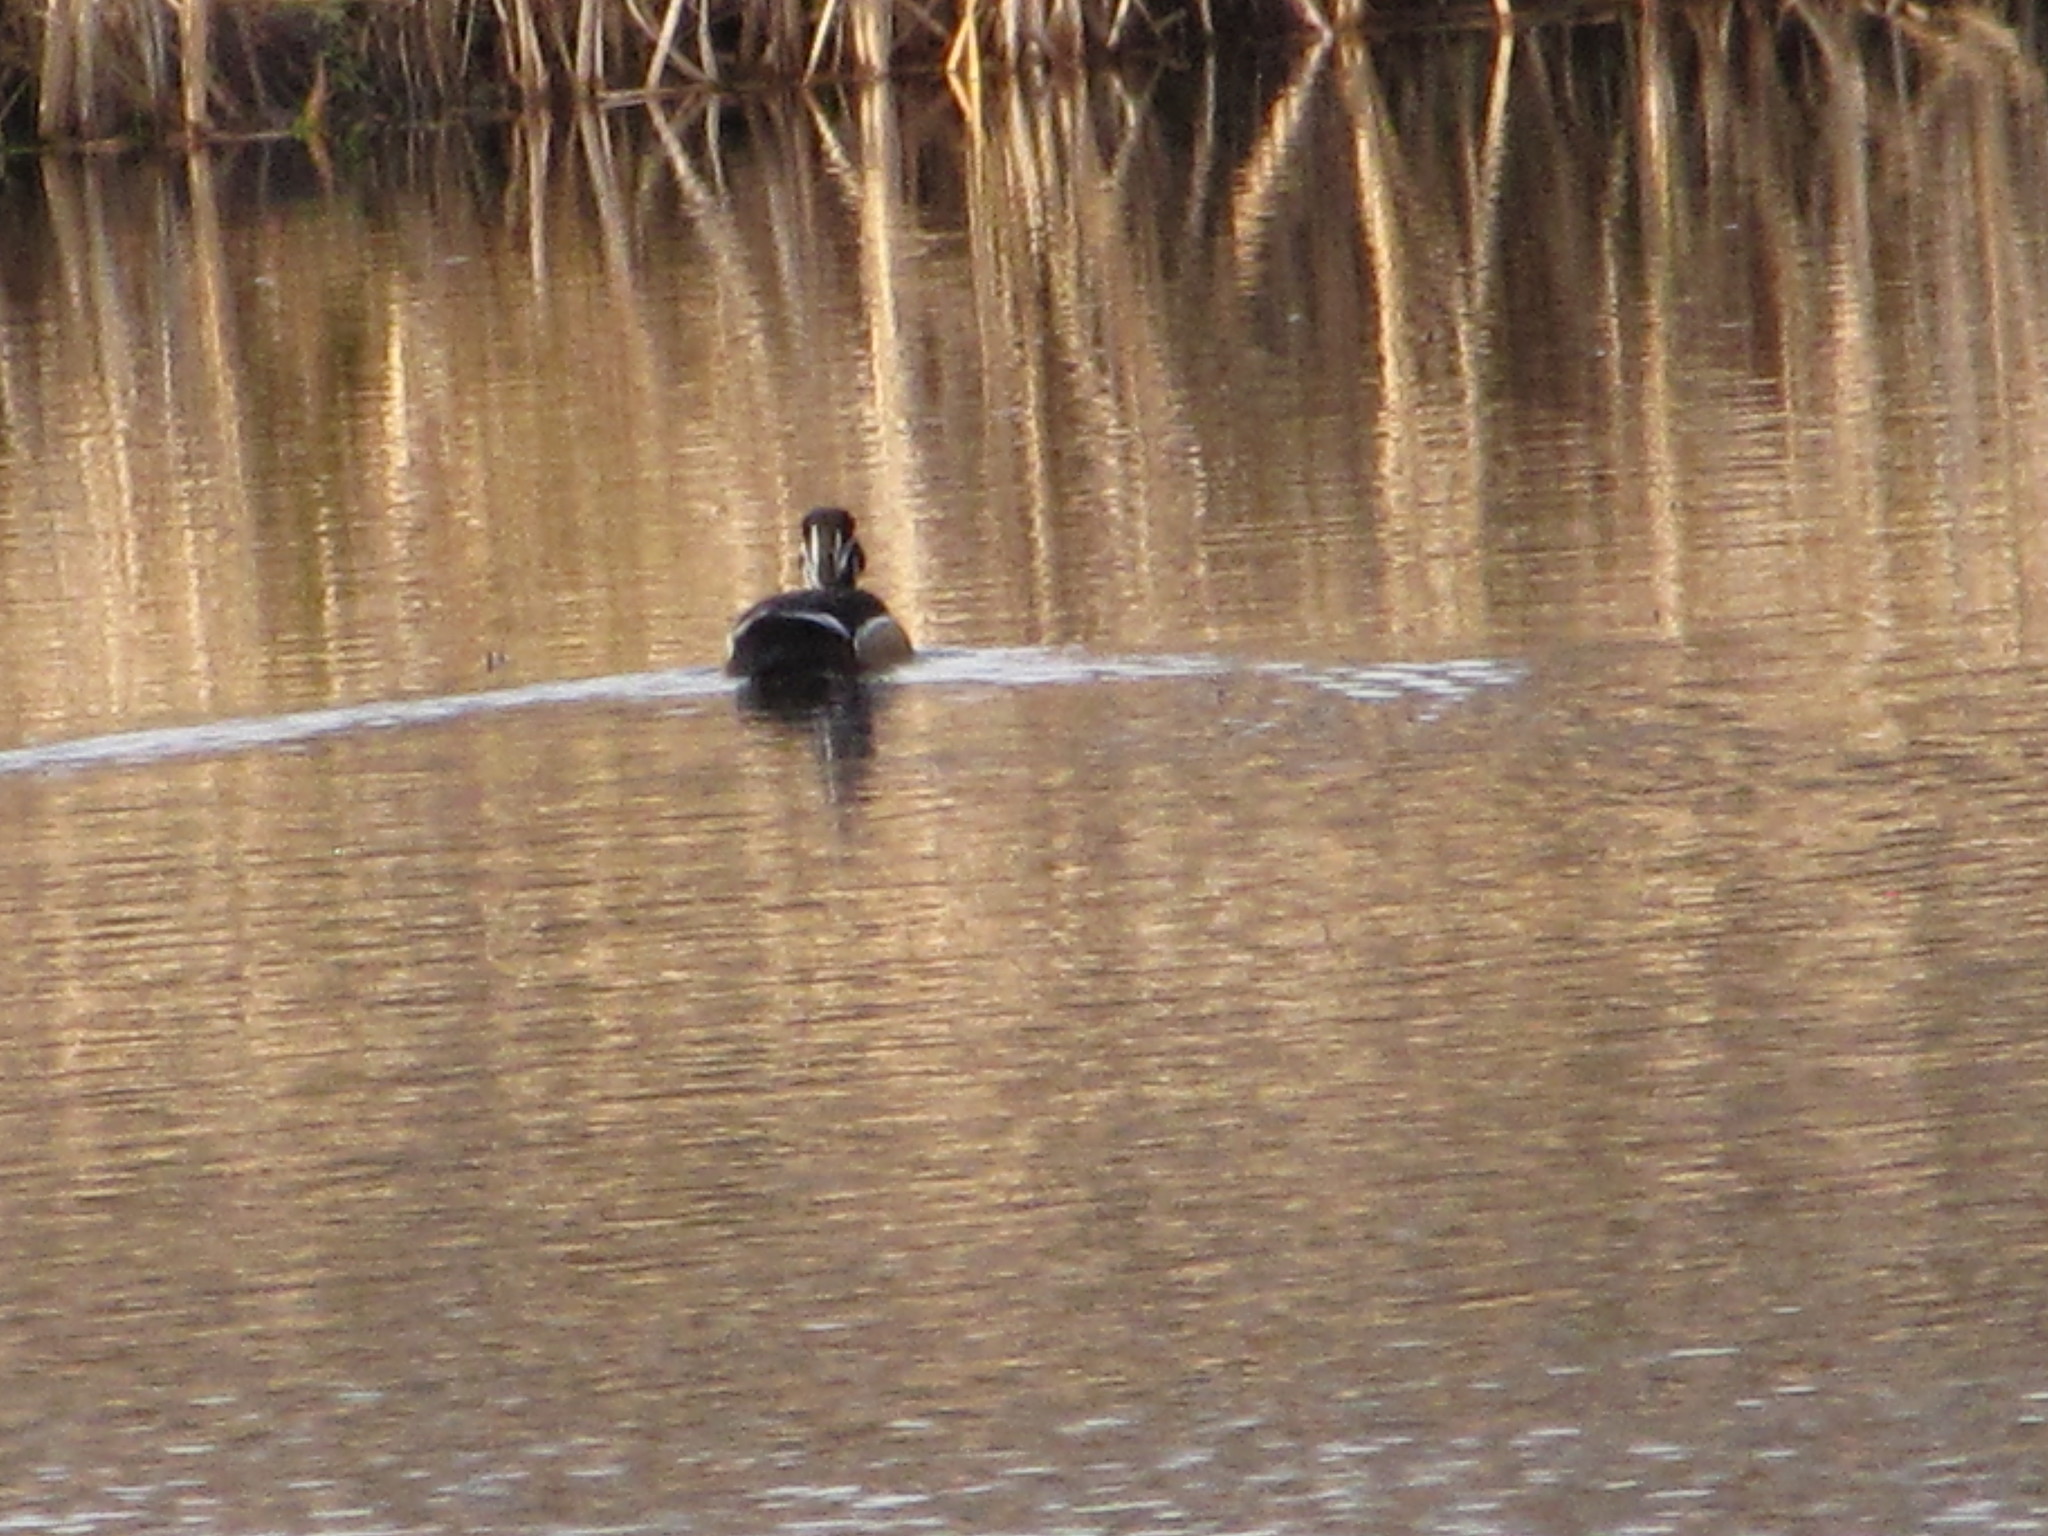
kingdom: Animalia
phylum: Chordata
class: Aves
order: Anseriformes
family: Anatidae
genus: Aix
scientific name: Aix sponsa
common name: Wood duck
